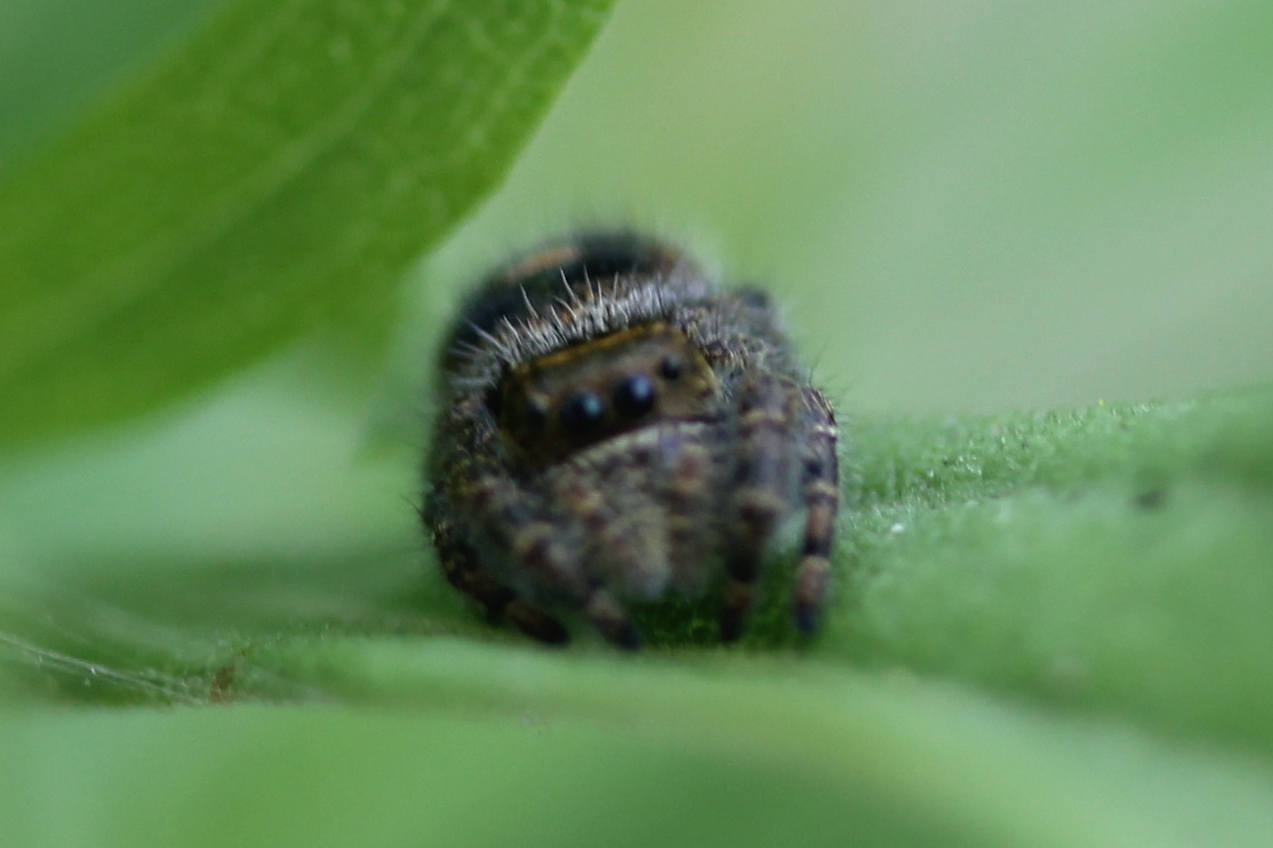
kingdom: Animalia
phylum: Arthropoda
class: Arachnida
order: Araneae
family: Salticidae
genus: Phidippus
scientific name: Phidippus audax
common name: Bold jumper
